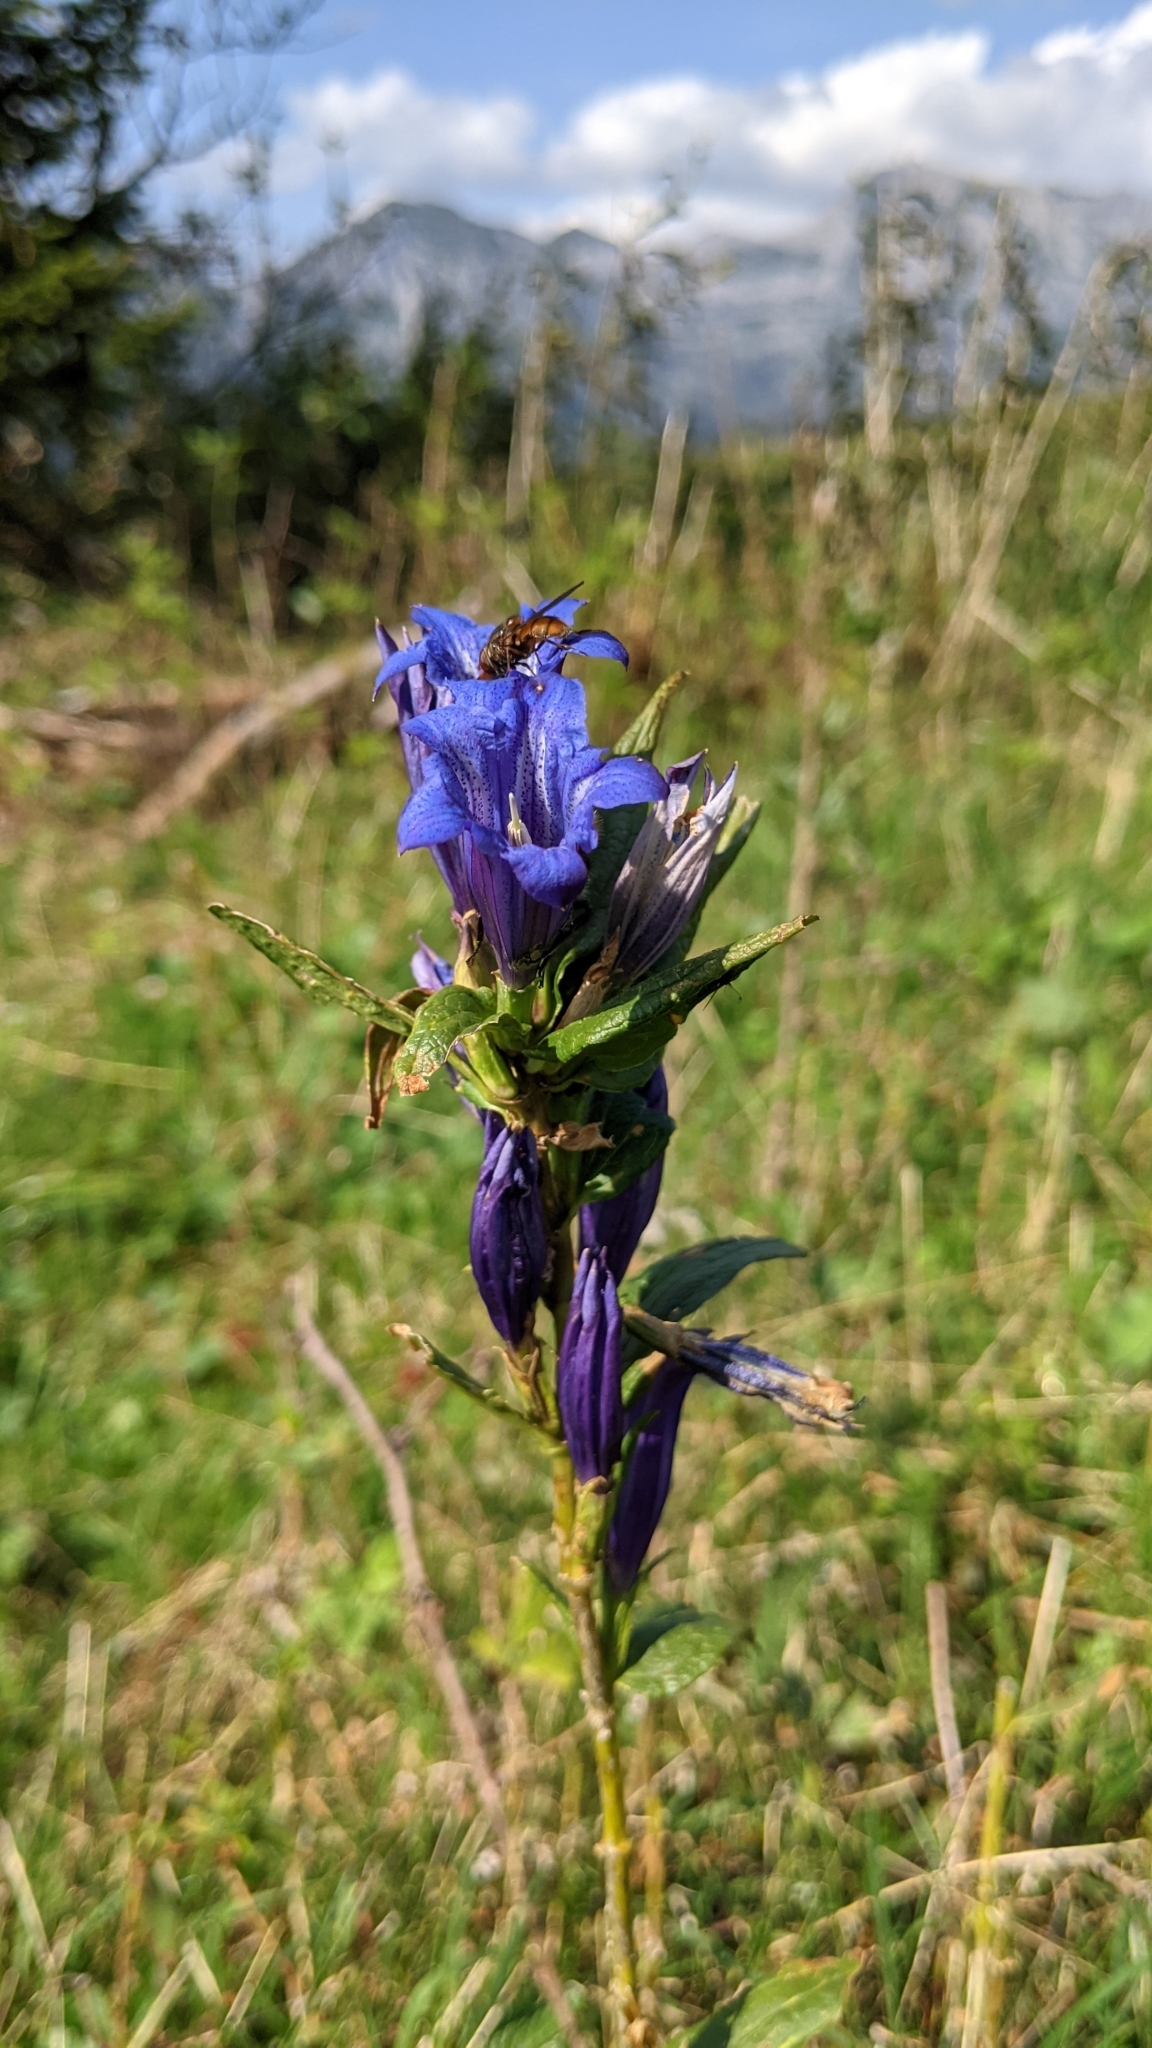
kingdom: Plantae
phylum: Tracheophyta
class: Magnoliopsida
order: Gentianales
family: Gentianaceae
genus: Gentiana
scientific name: Gentiana asclepiadea
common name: Willow gentian
